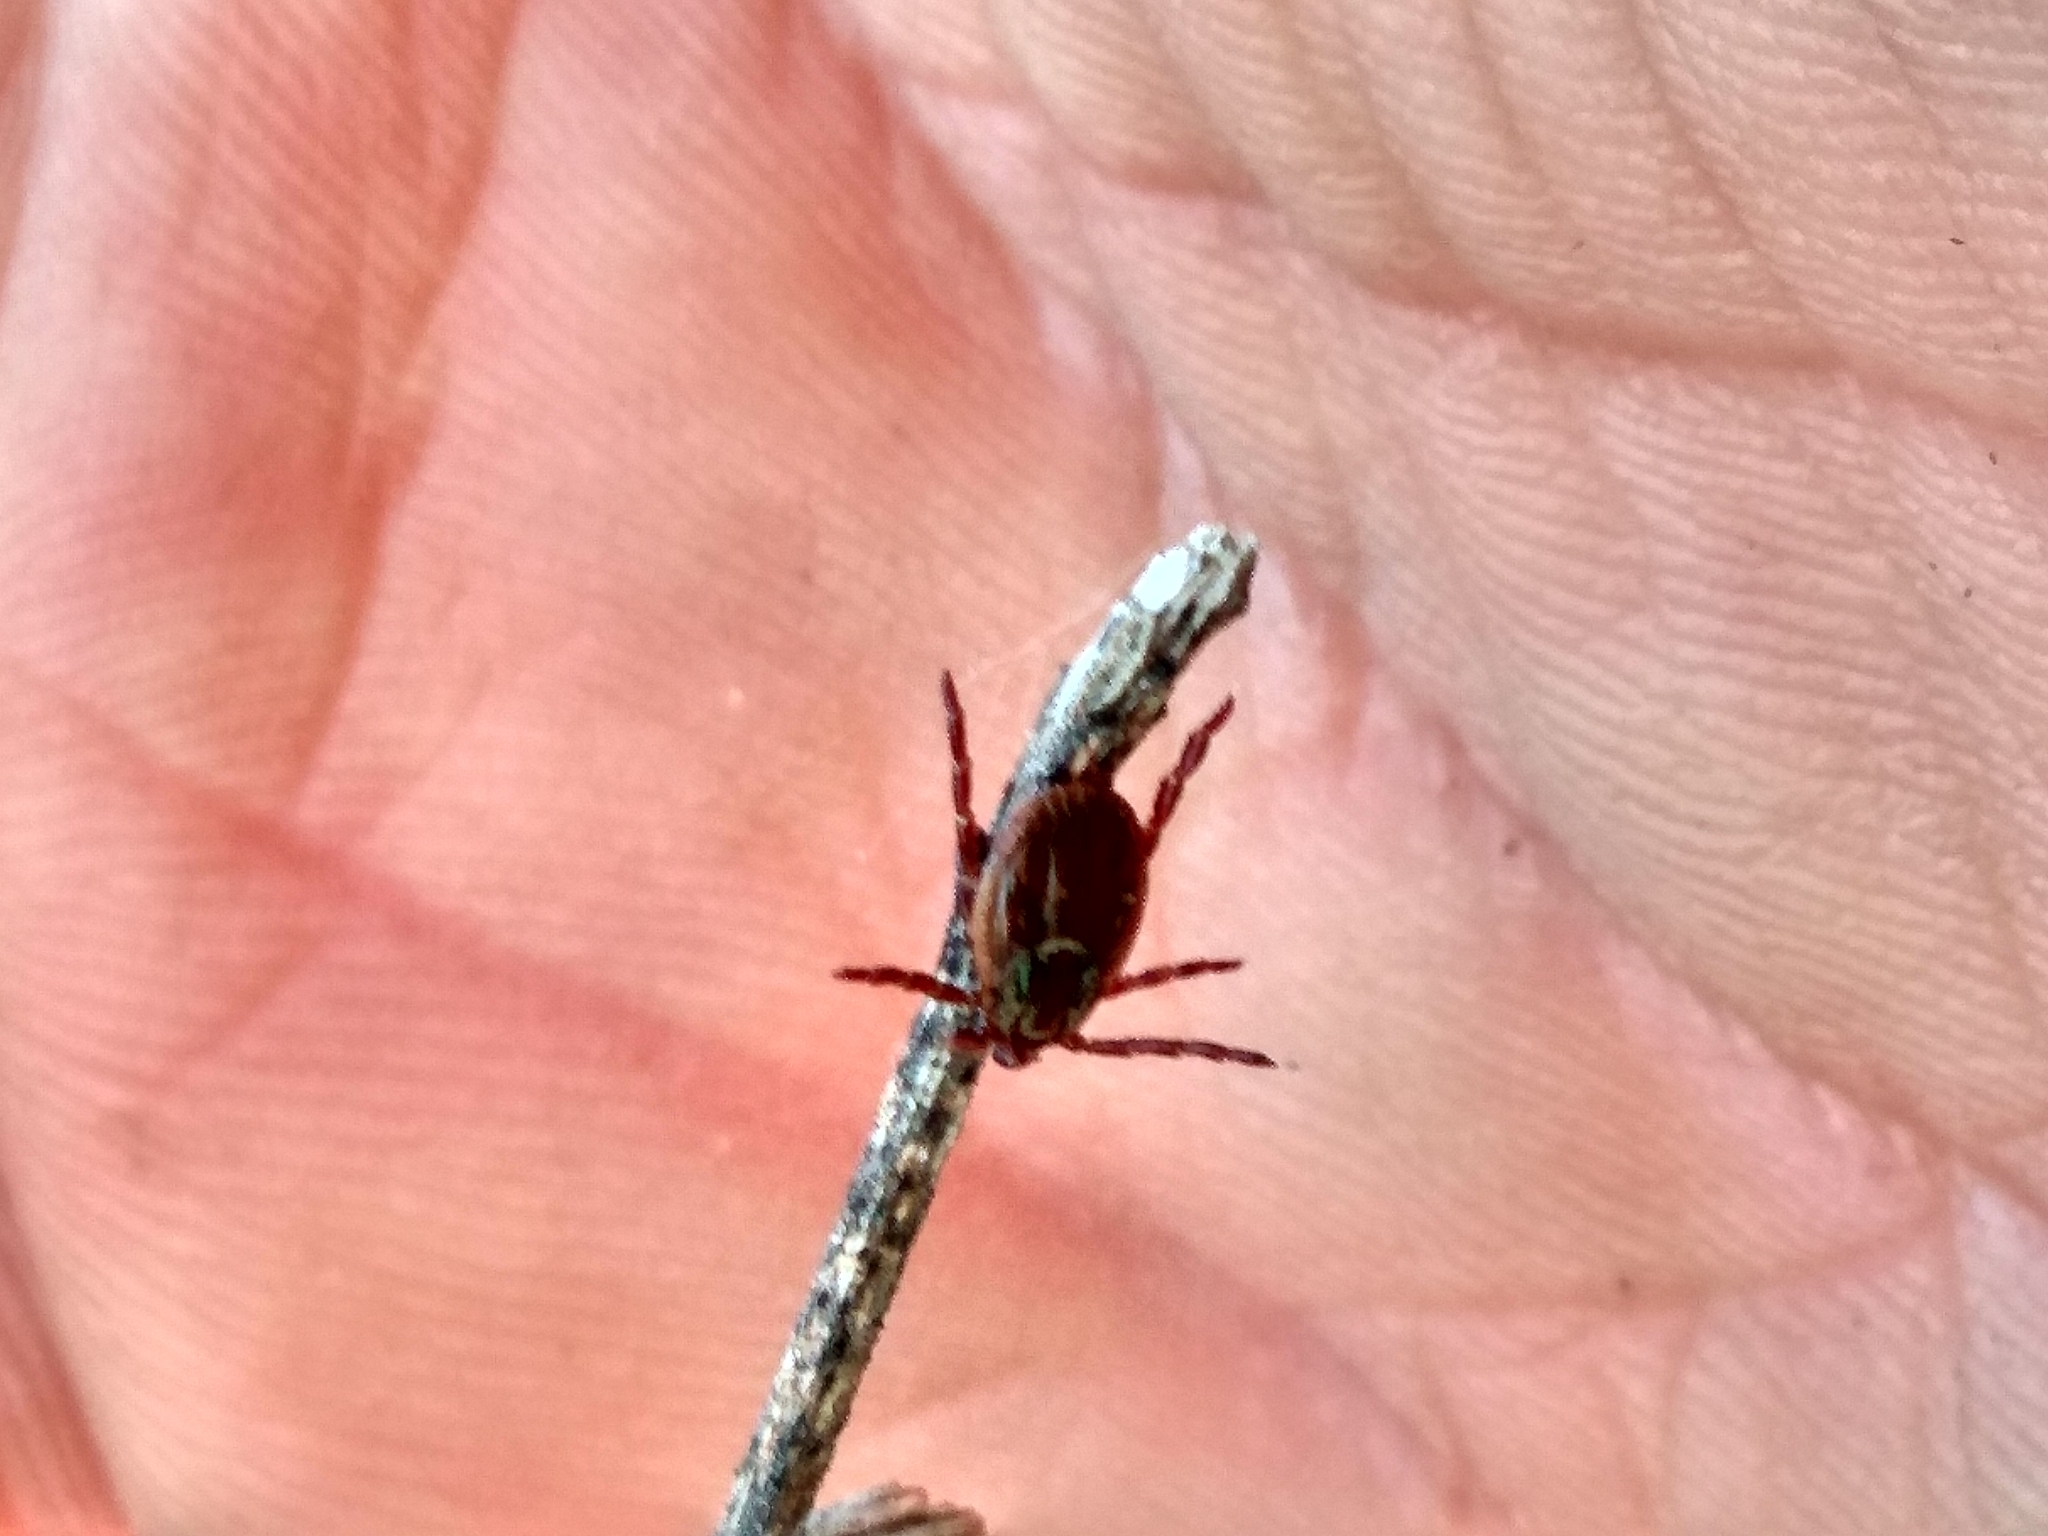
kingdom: Animalia
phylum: Arthropoda
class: Arachnida
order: Ixodida
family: Ixodidae
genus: Dermacentor
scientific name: Dermacentor
